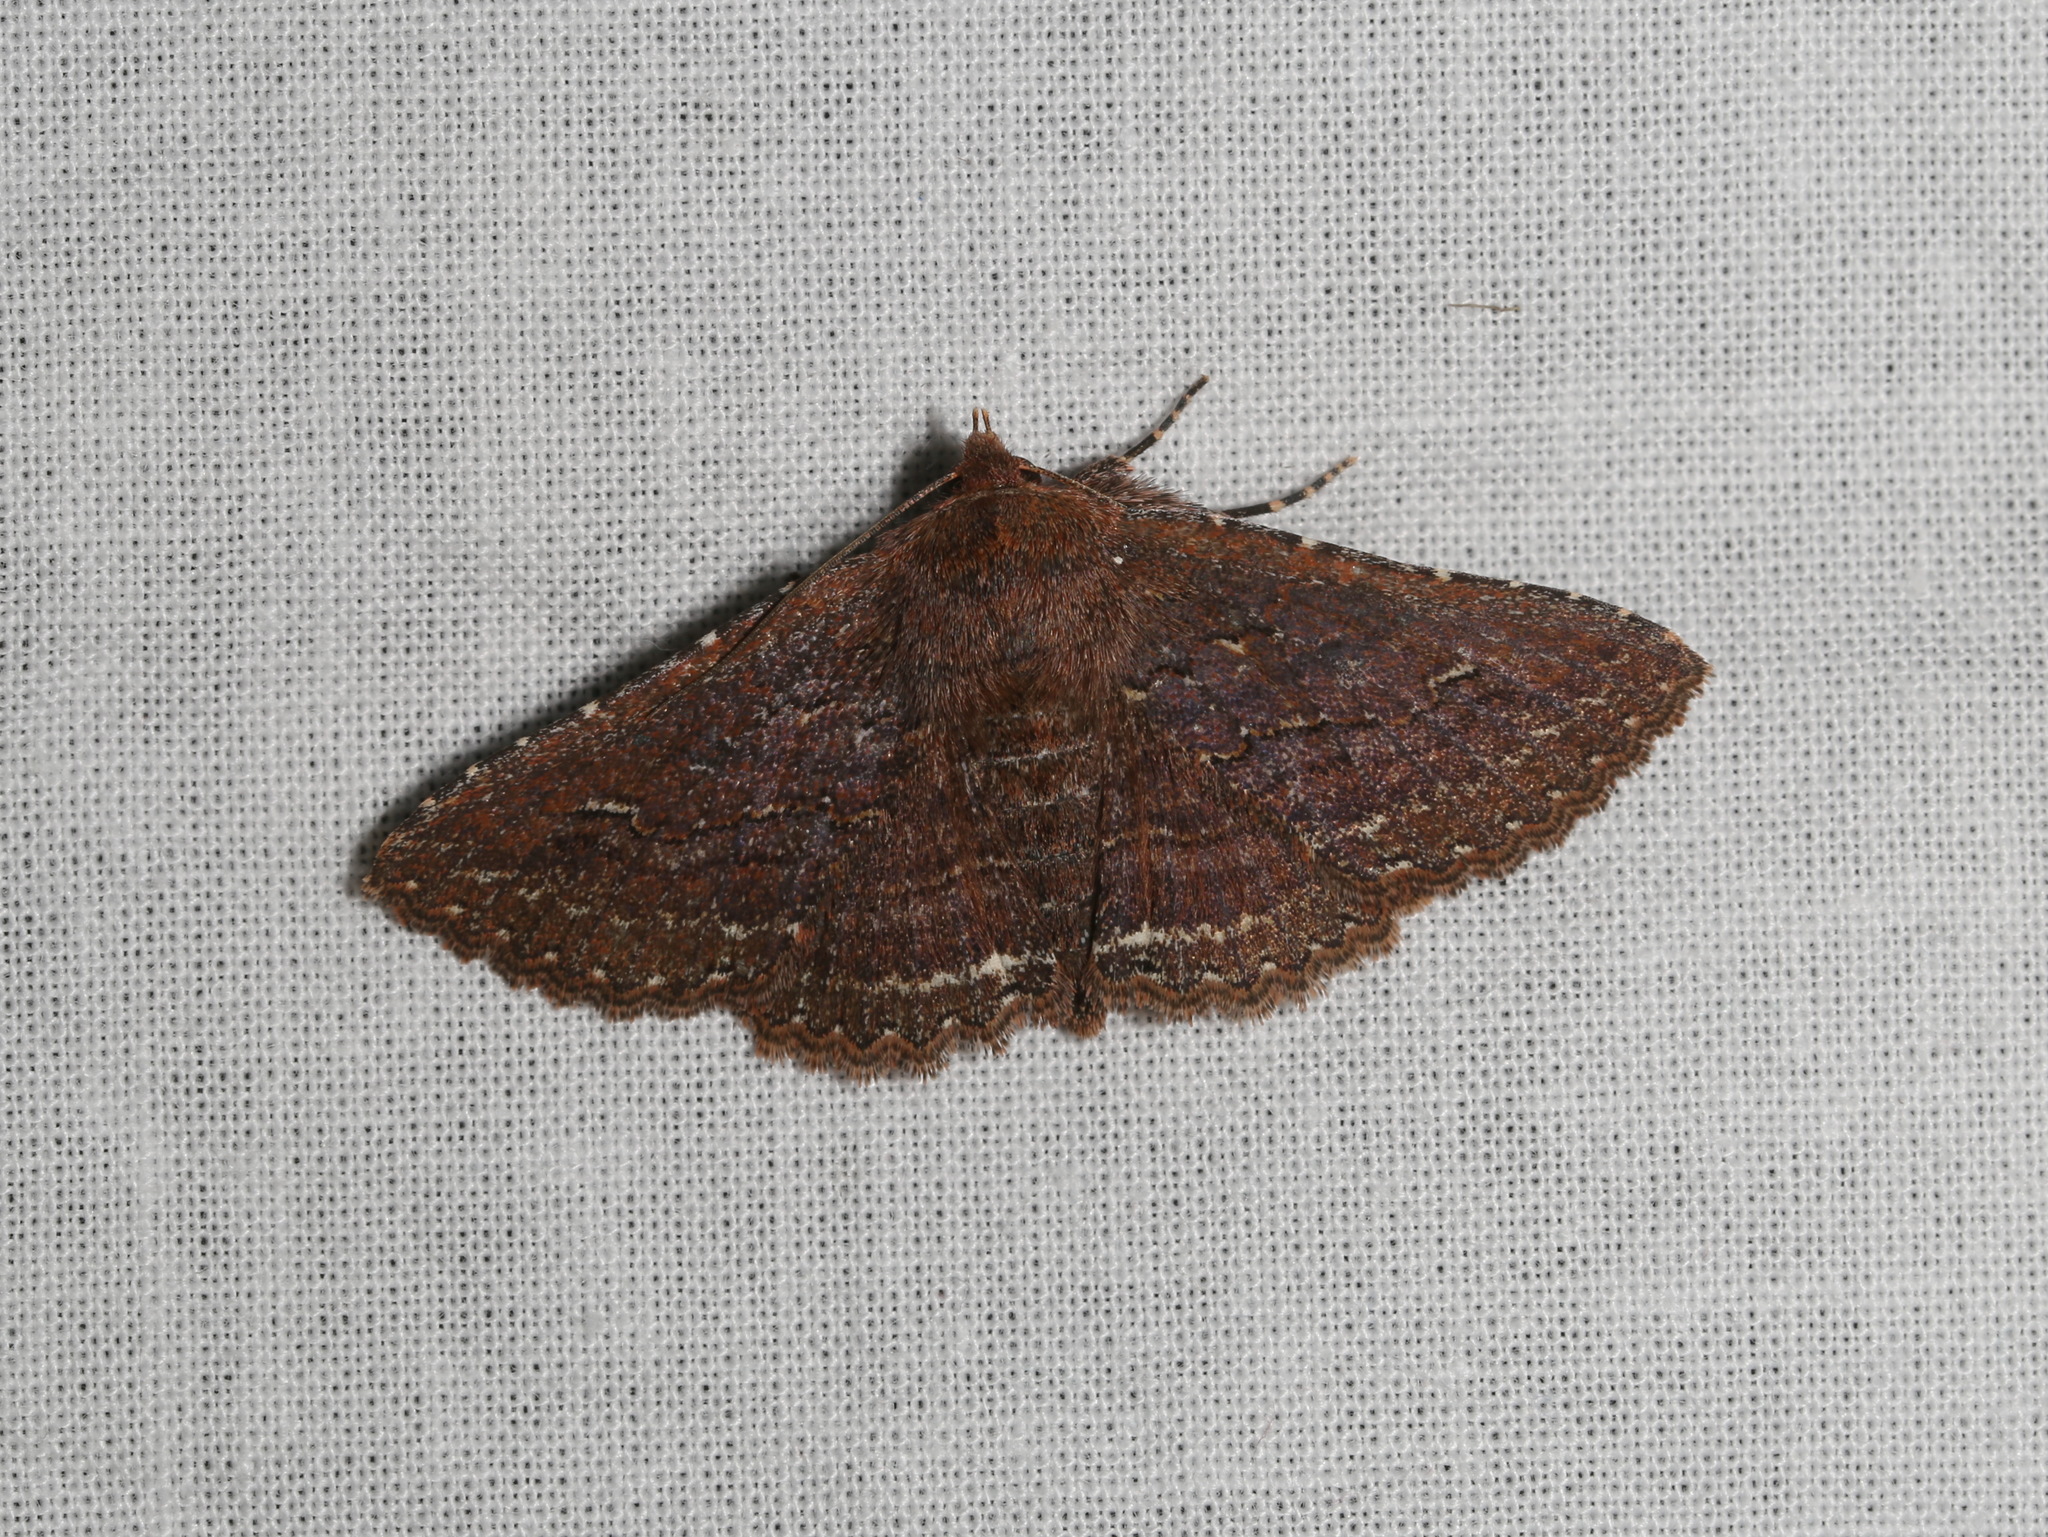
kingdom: Animalia
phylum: Arthropoda
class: Insecta
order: Lepidoptera
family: Erebidae
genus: Praxis
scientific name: Praxis porphyretica
